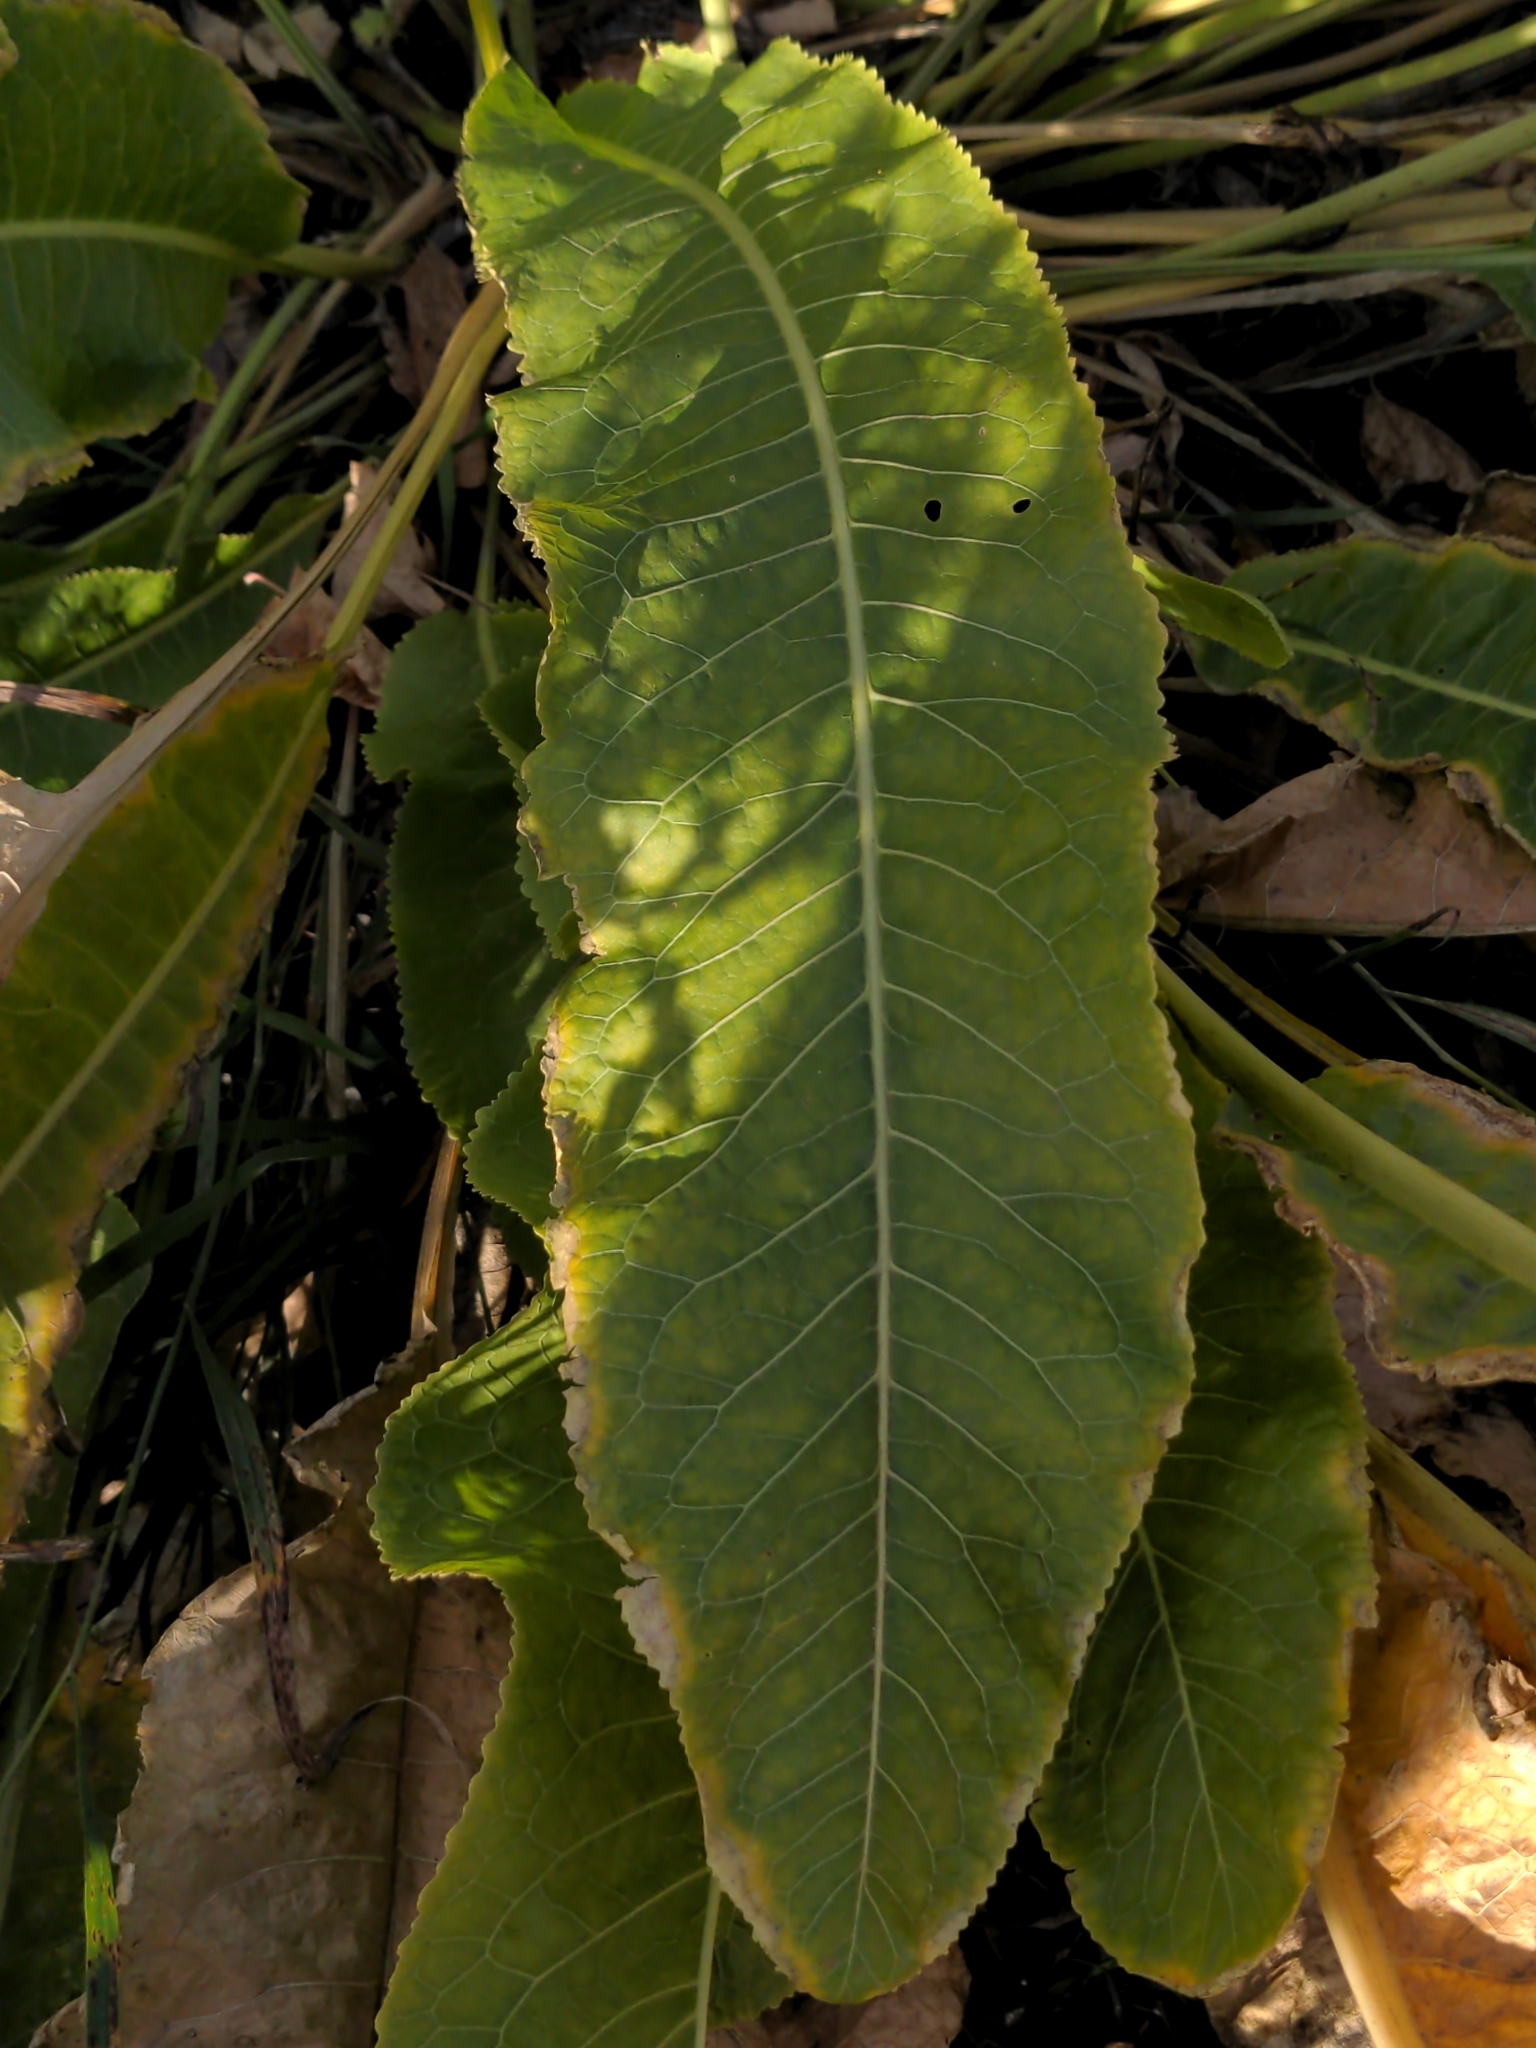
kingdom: Plantae
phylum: Tracheophyta
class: Magnoliopsida
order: Brassicales
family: Brassicaceae
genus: Armoracia
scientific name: Armoracia rusticana
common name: Horseradish
